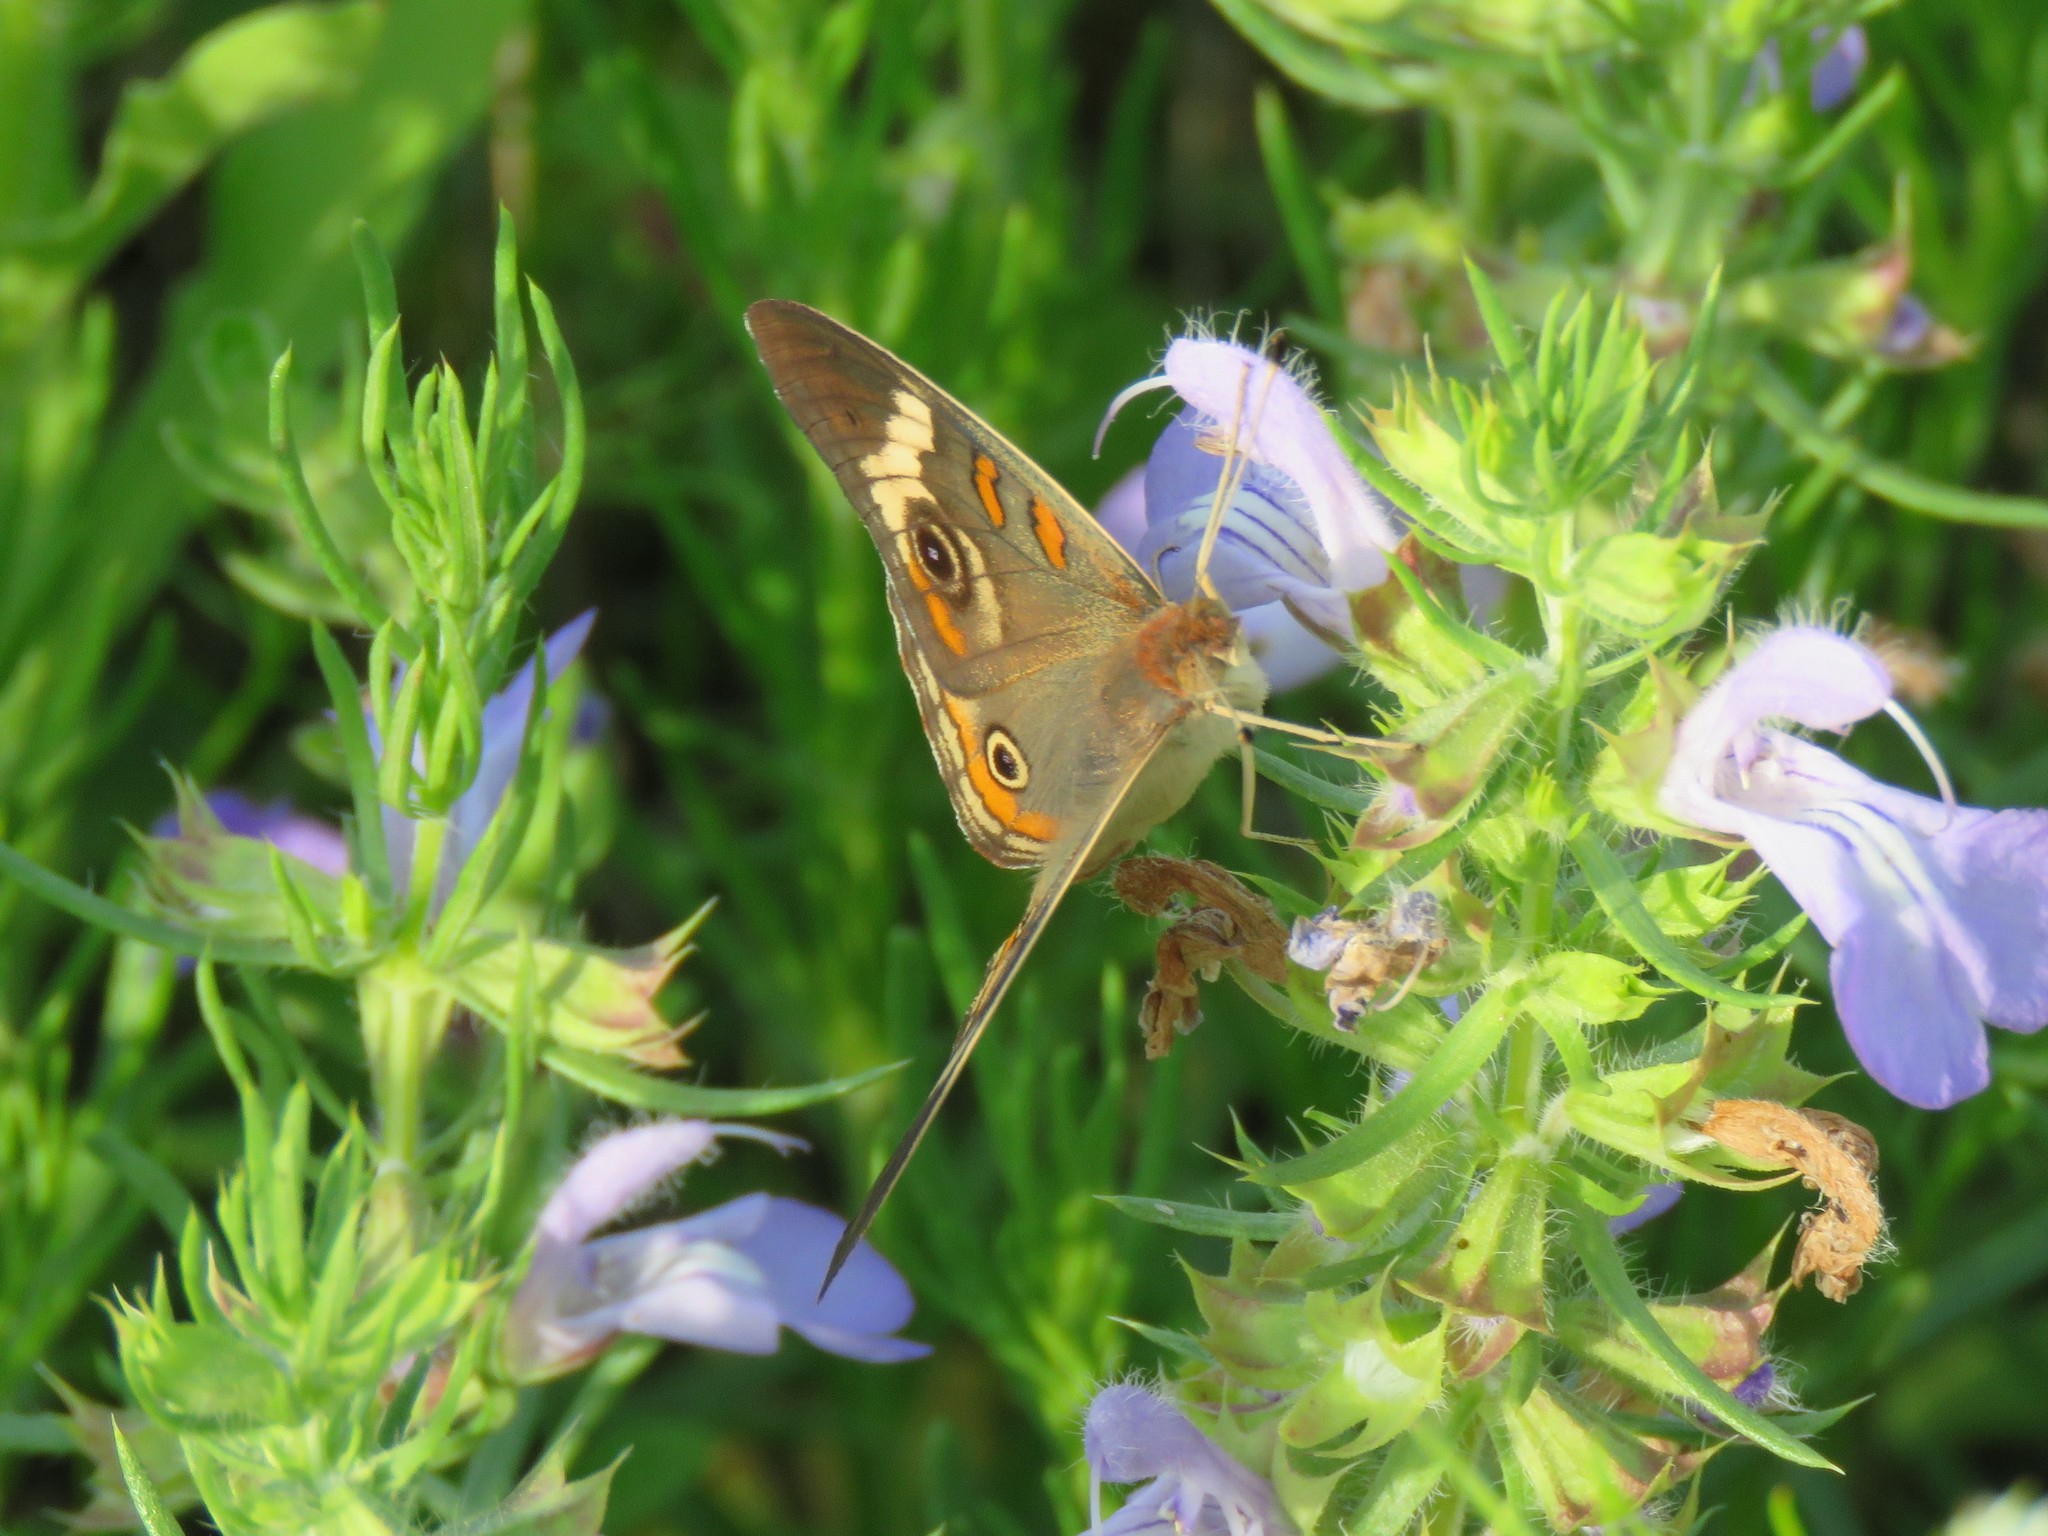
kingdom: Animalia
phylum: Arthropoda
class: Insecta
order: Lepidoptera
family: Nymphalidae
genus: Junonia
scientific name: Junonia coenia
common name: Common buckeye
